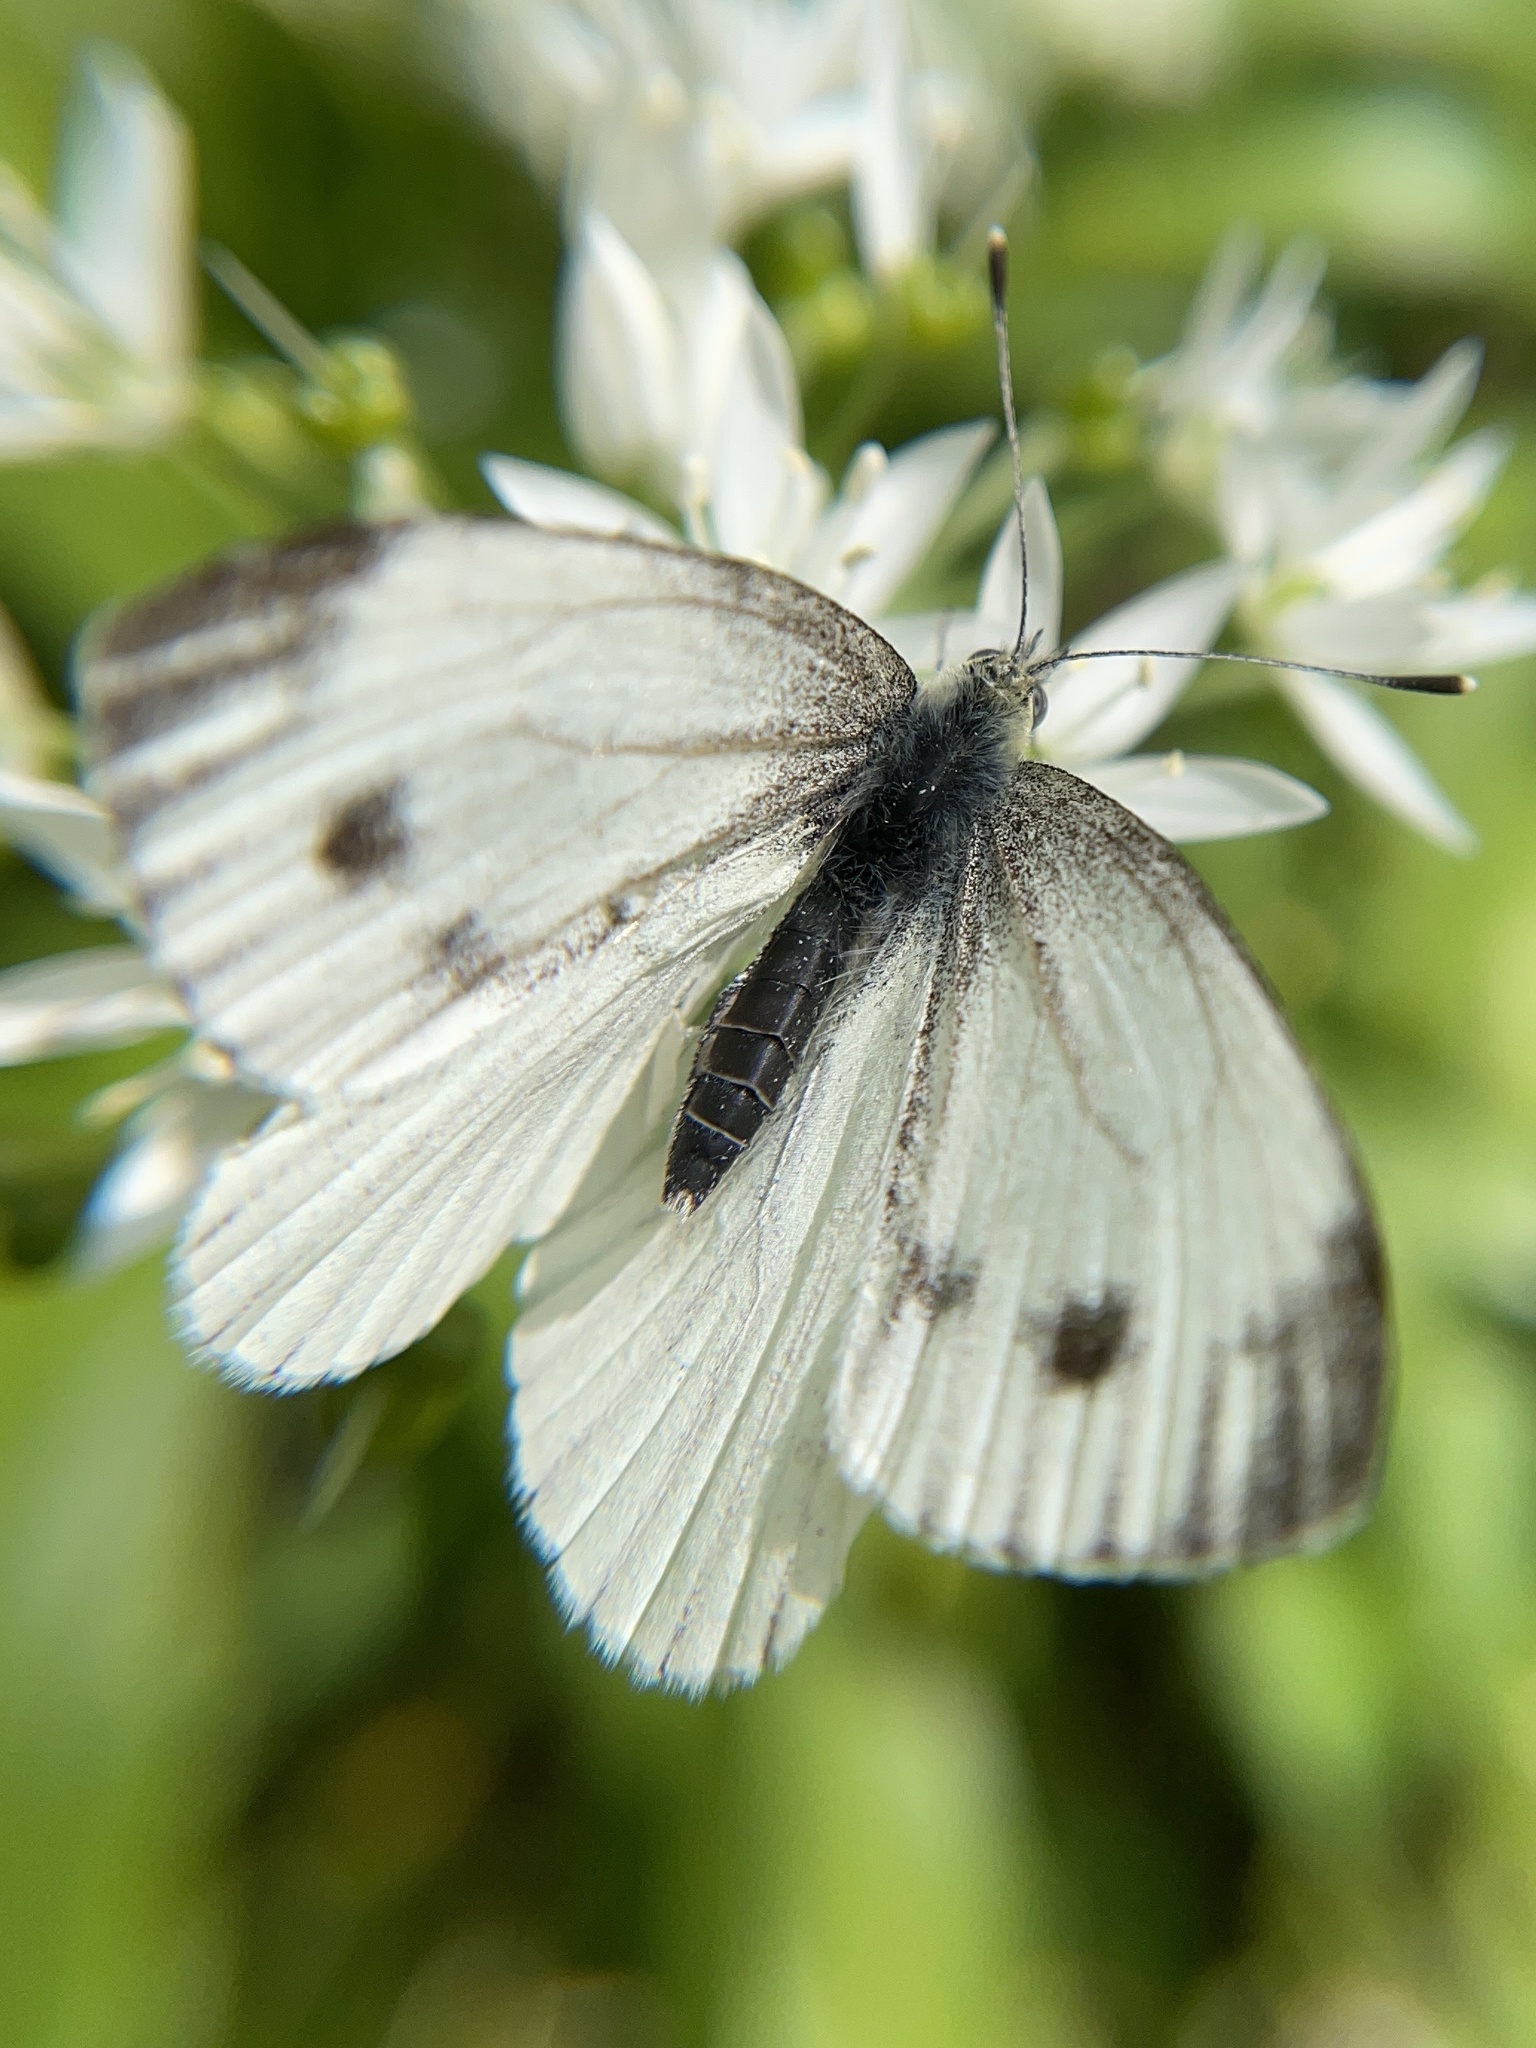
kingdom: Animalia
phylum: Arthropoda
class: Insecta
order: Lepidoptera
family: Pieridae
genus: Pieris
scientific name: Pieris napi
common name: Green-veined white
